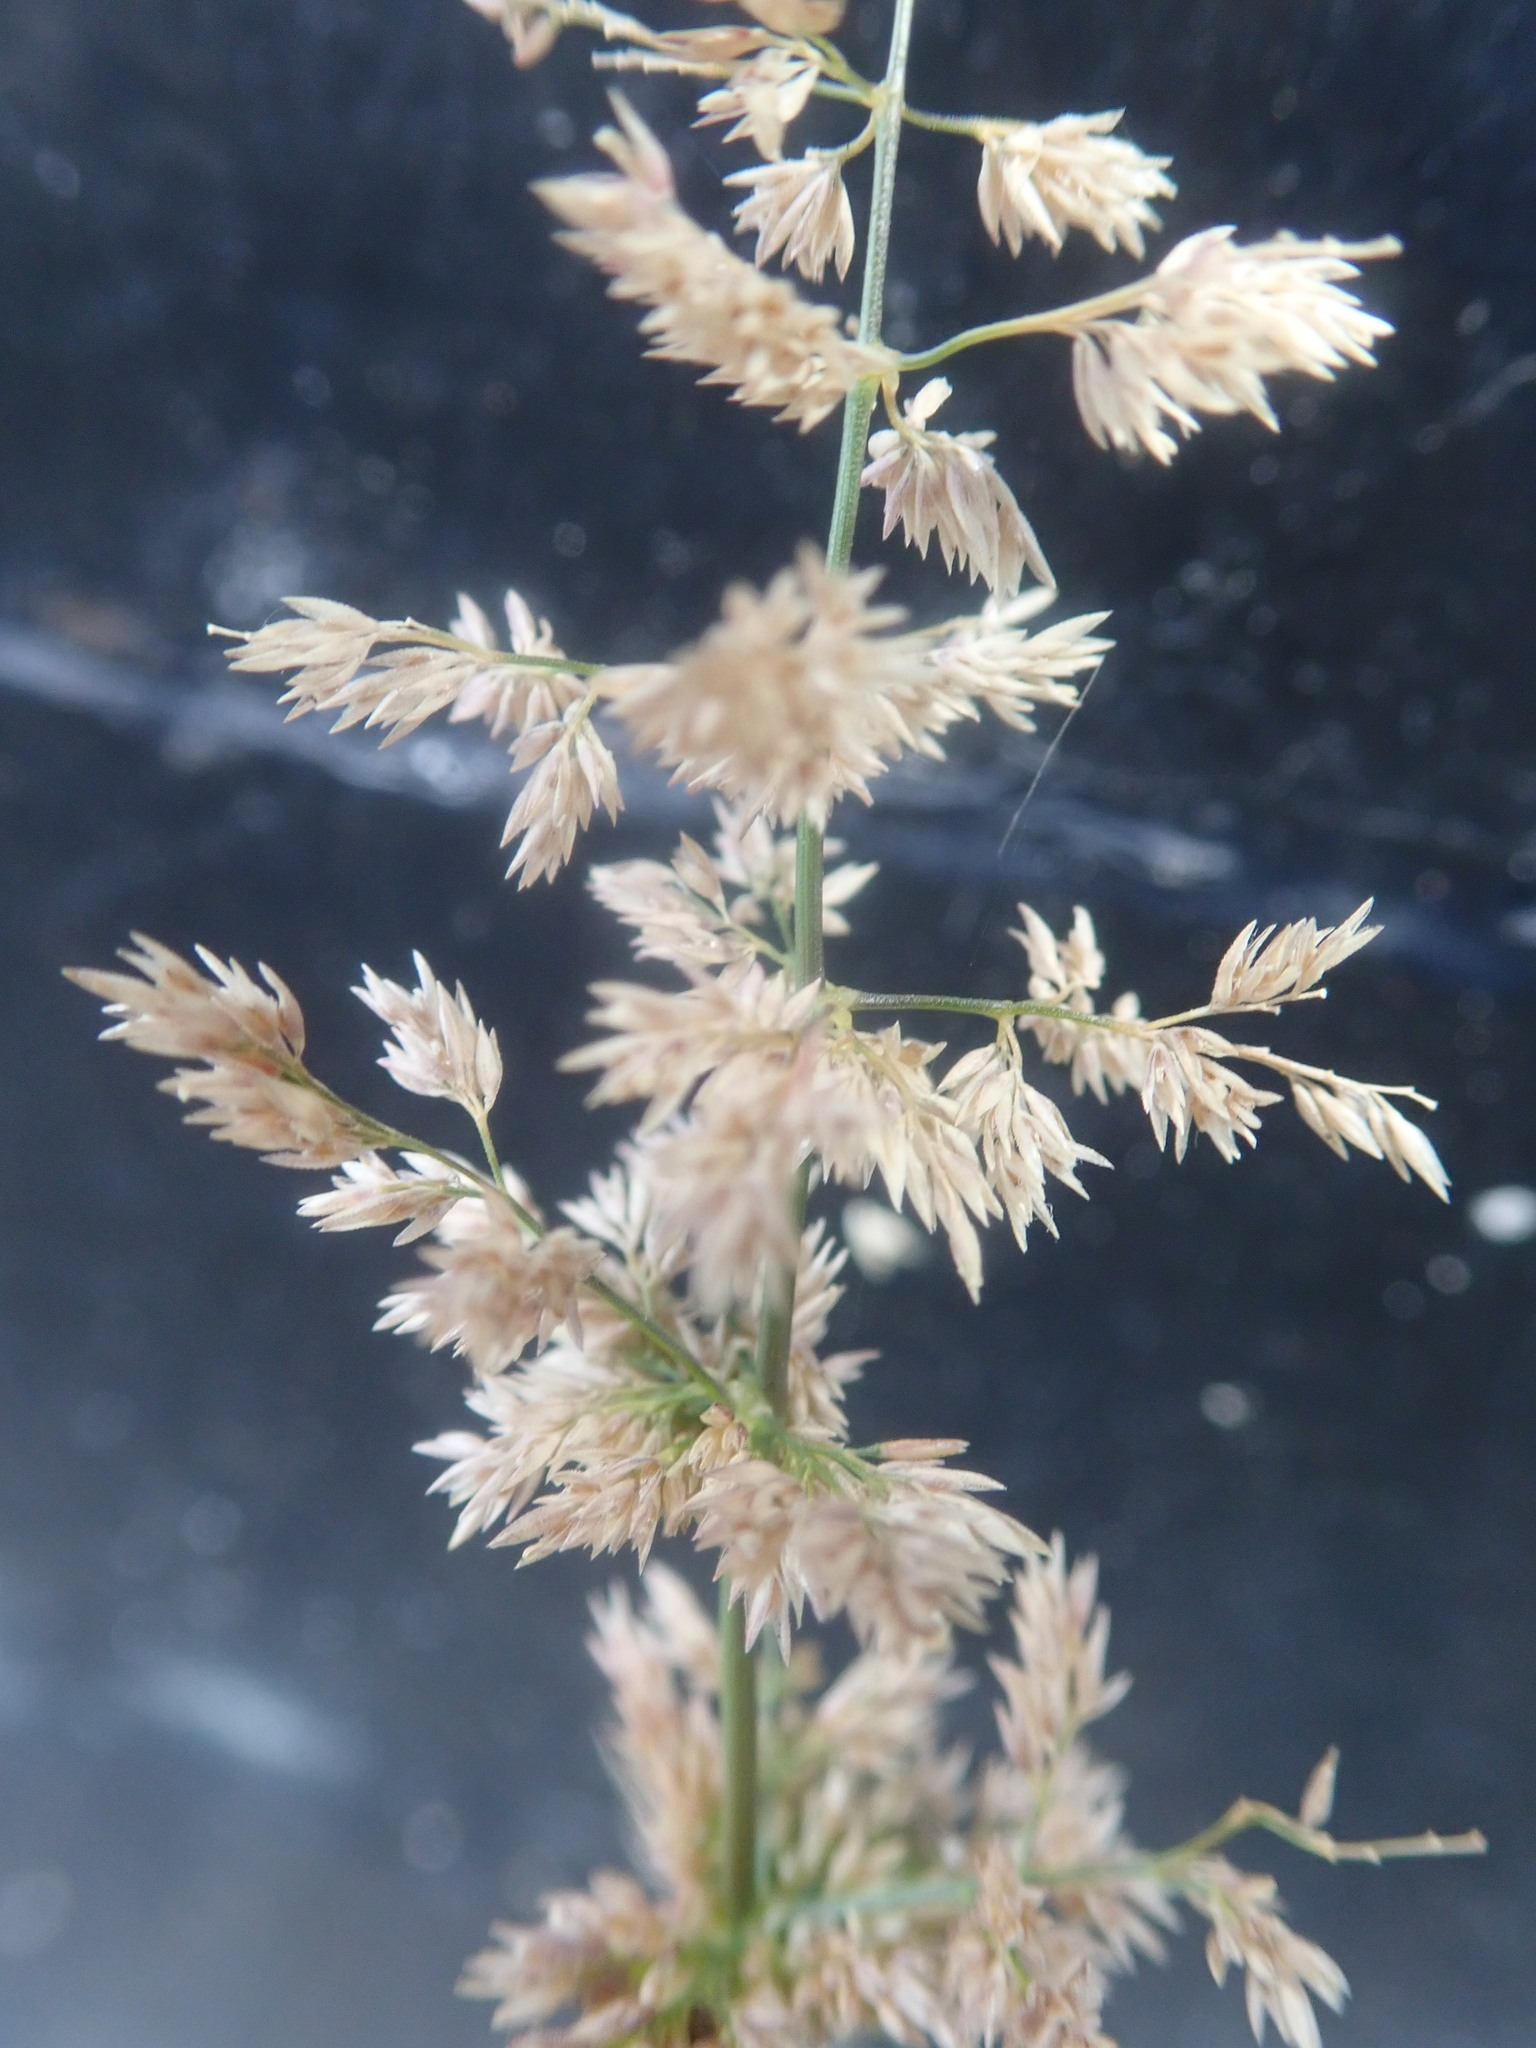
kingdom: Plantae
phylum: Tracheophyta
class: Liliopsida
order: Poales
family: Poaceae
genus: Polypogon
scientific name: Polypogon viridis
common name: Water bent
